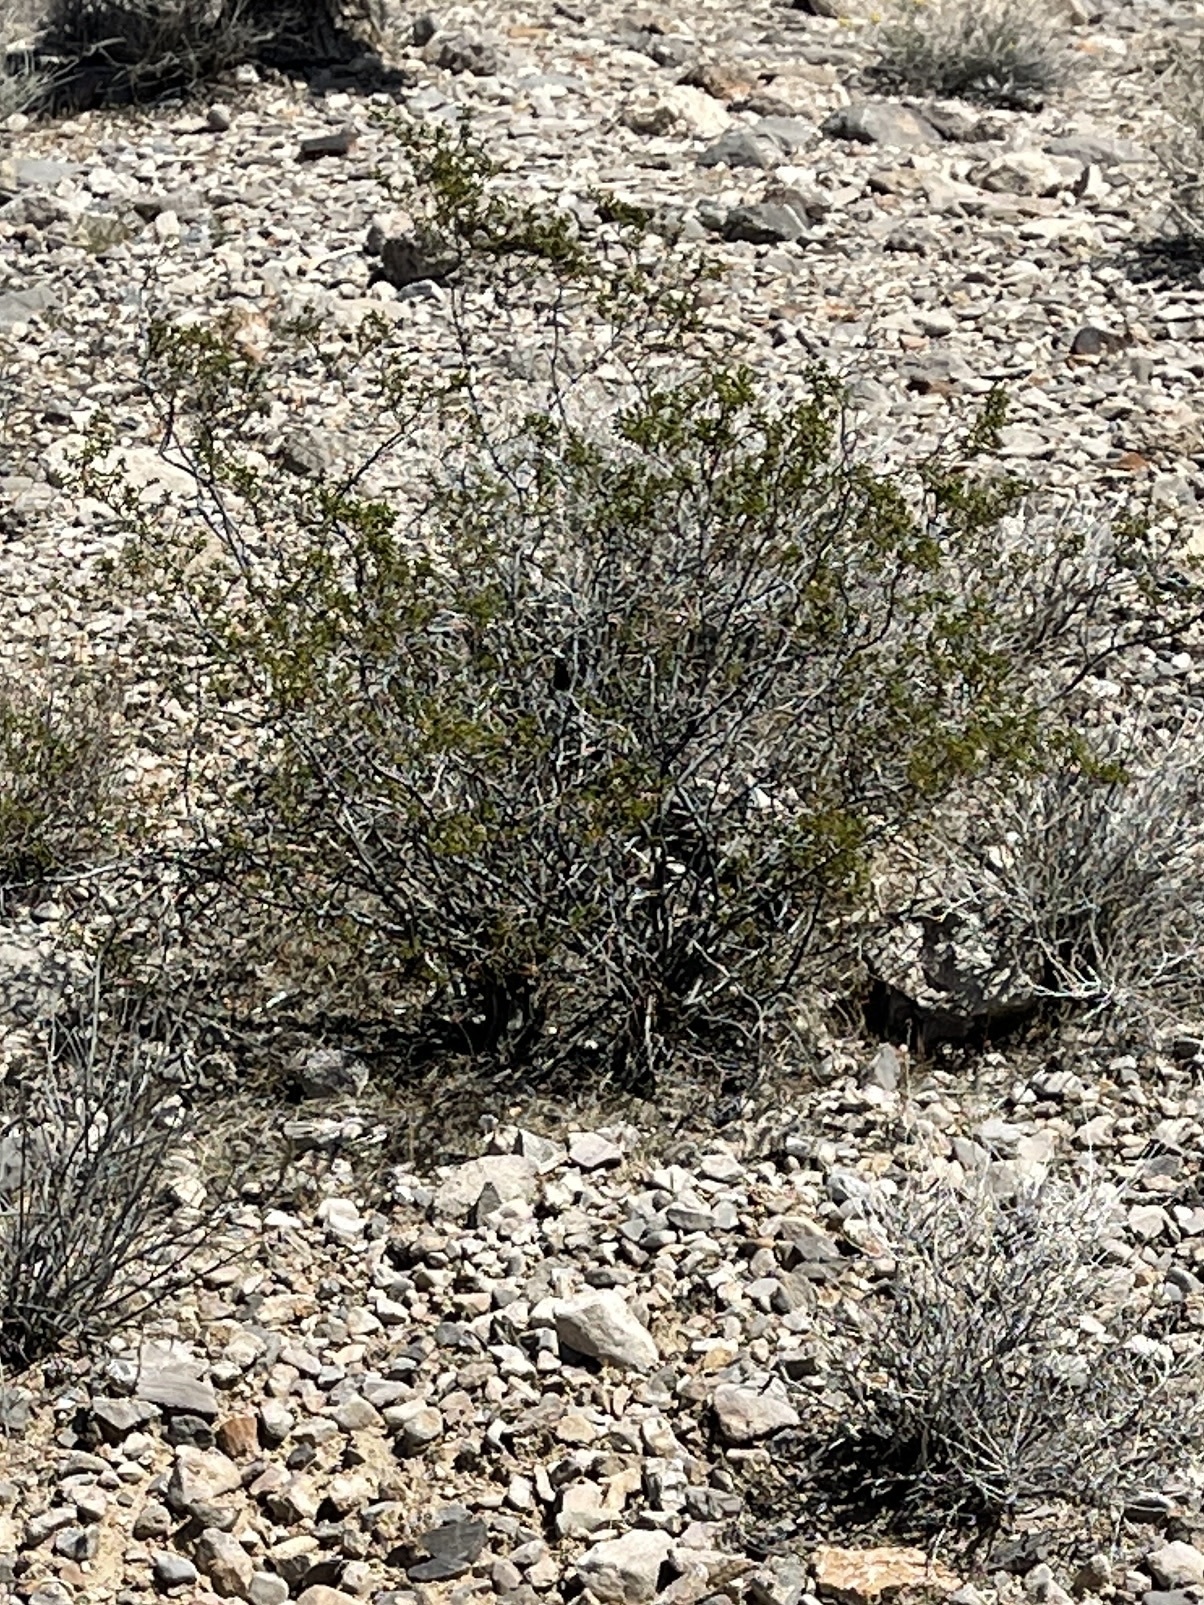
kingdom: Plantae
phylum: Tracheophyta
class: Magnoliopsida
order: Zygophyllales
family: Zygophyllaceae
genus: Larrea
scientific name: Larrea tridentata
